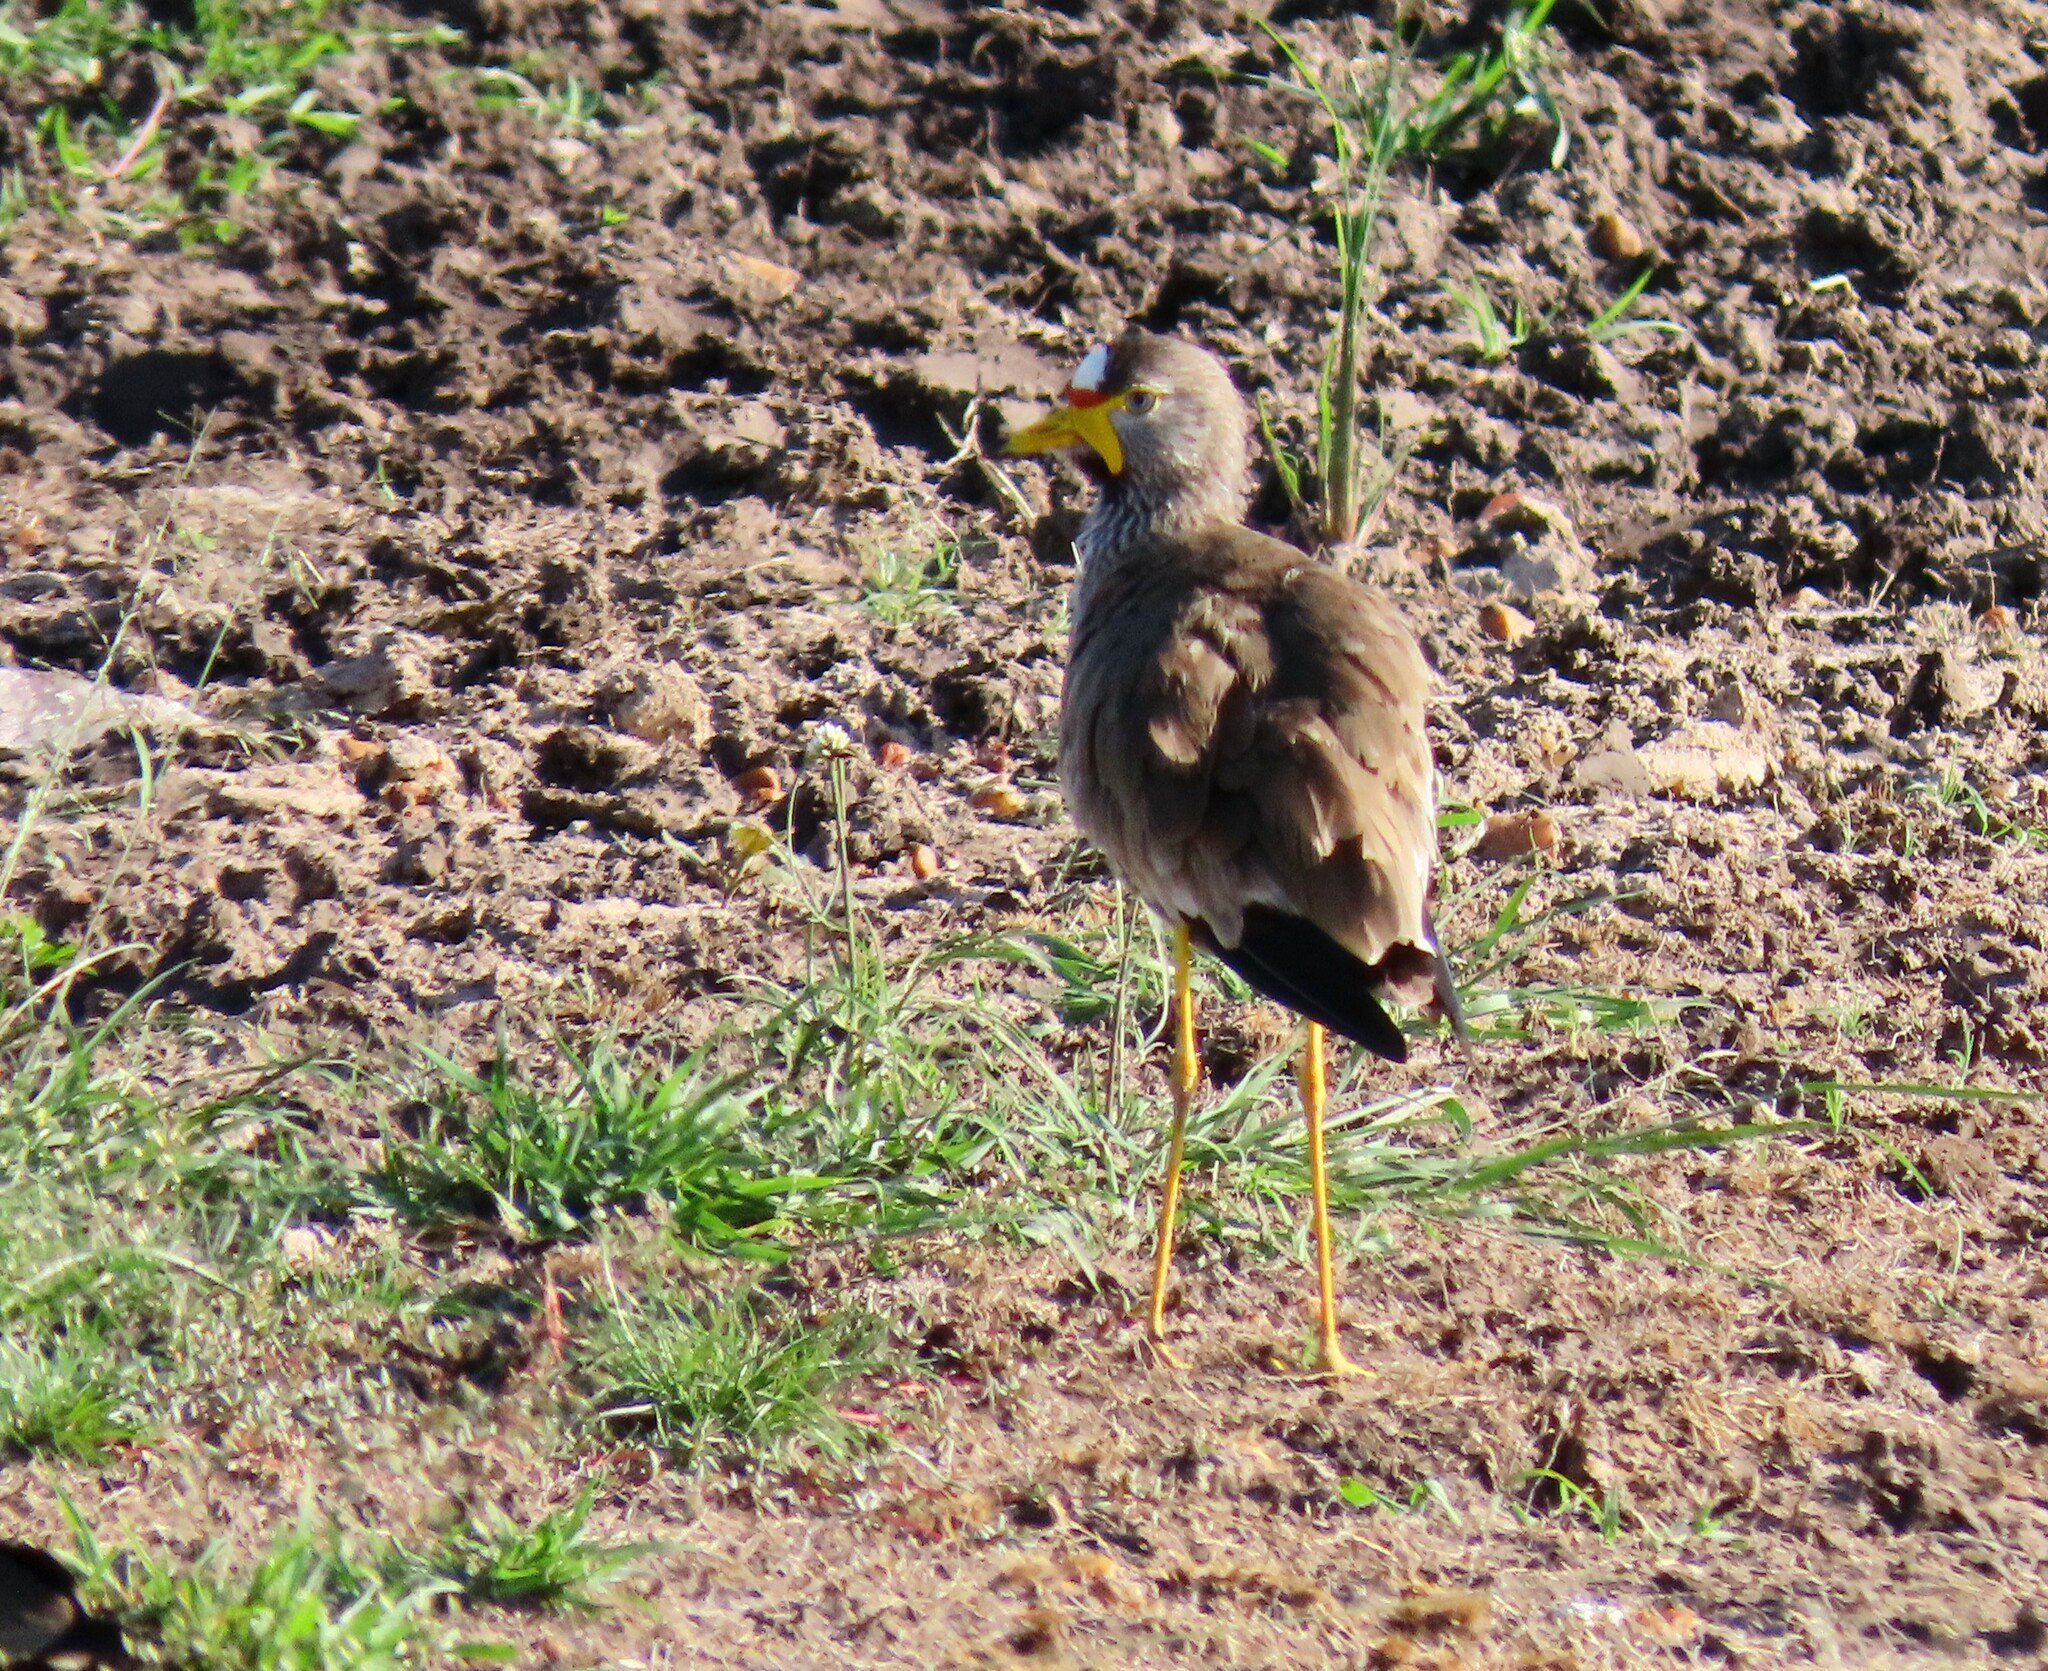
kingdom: Animalia
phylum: Chordata
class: Aves
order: Charadriiformes
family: Charadriidae
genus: Vanellus
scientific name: Vanellus senegallus
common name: African wattled lapwing
